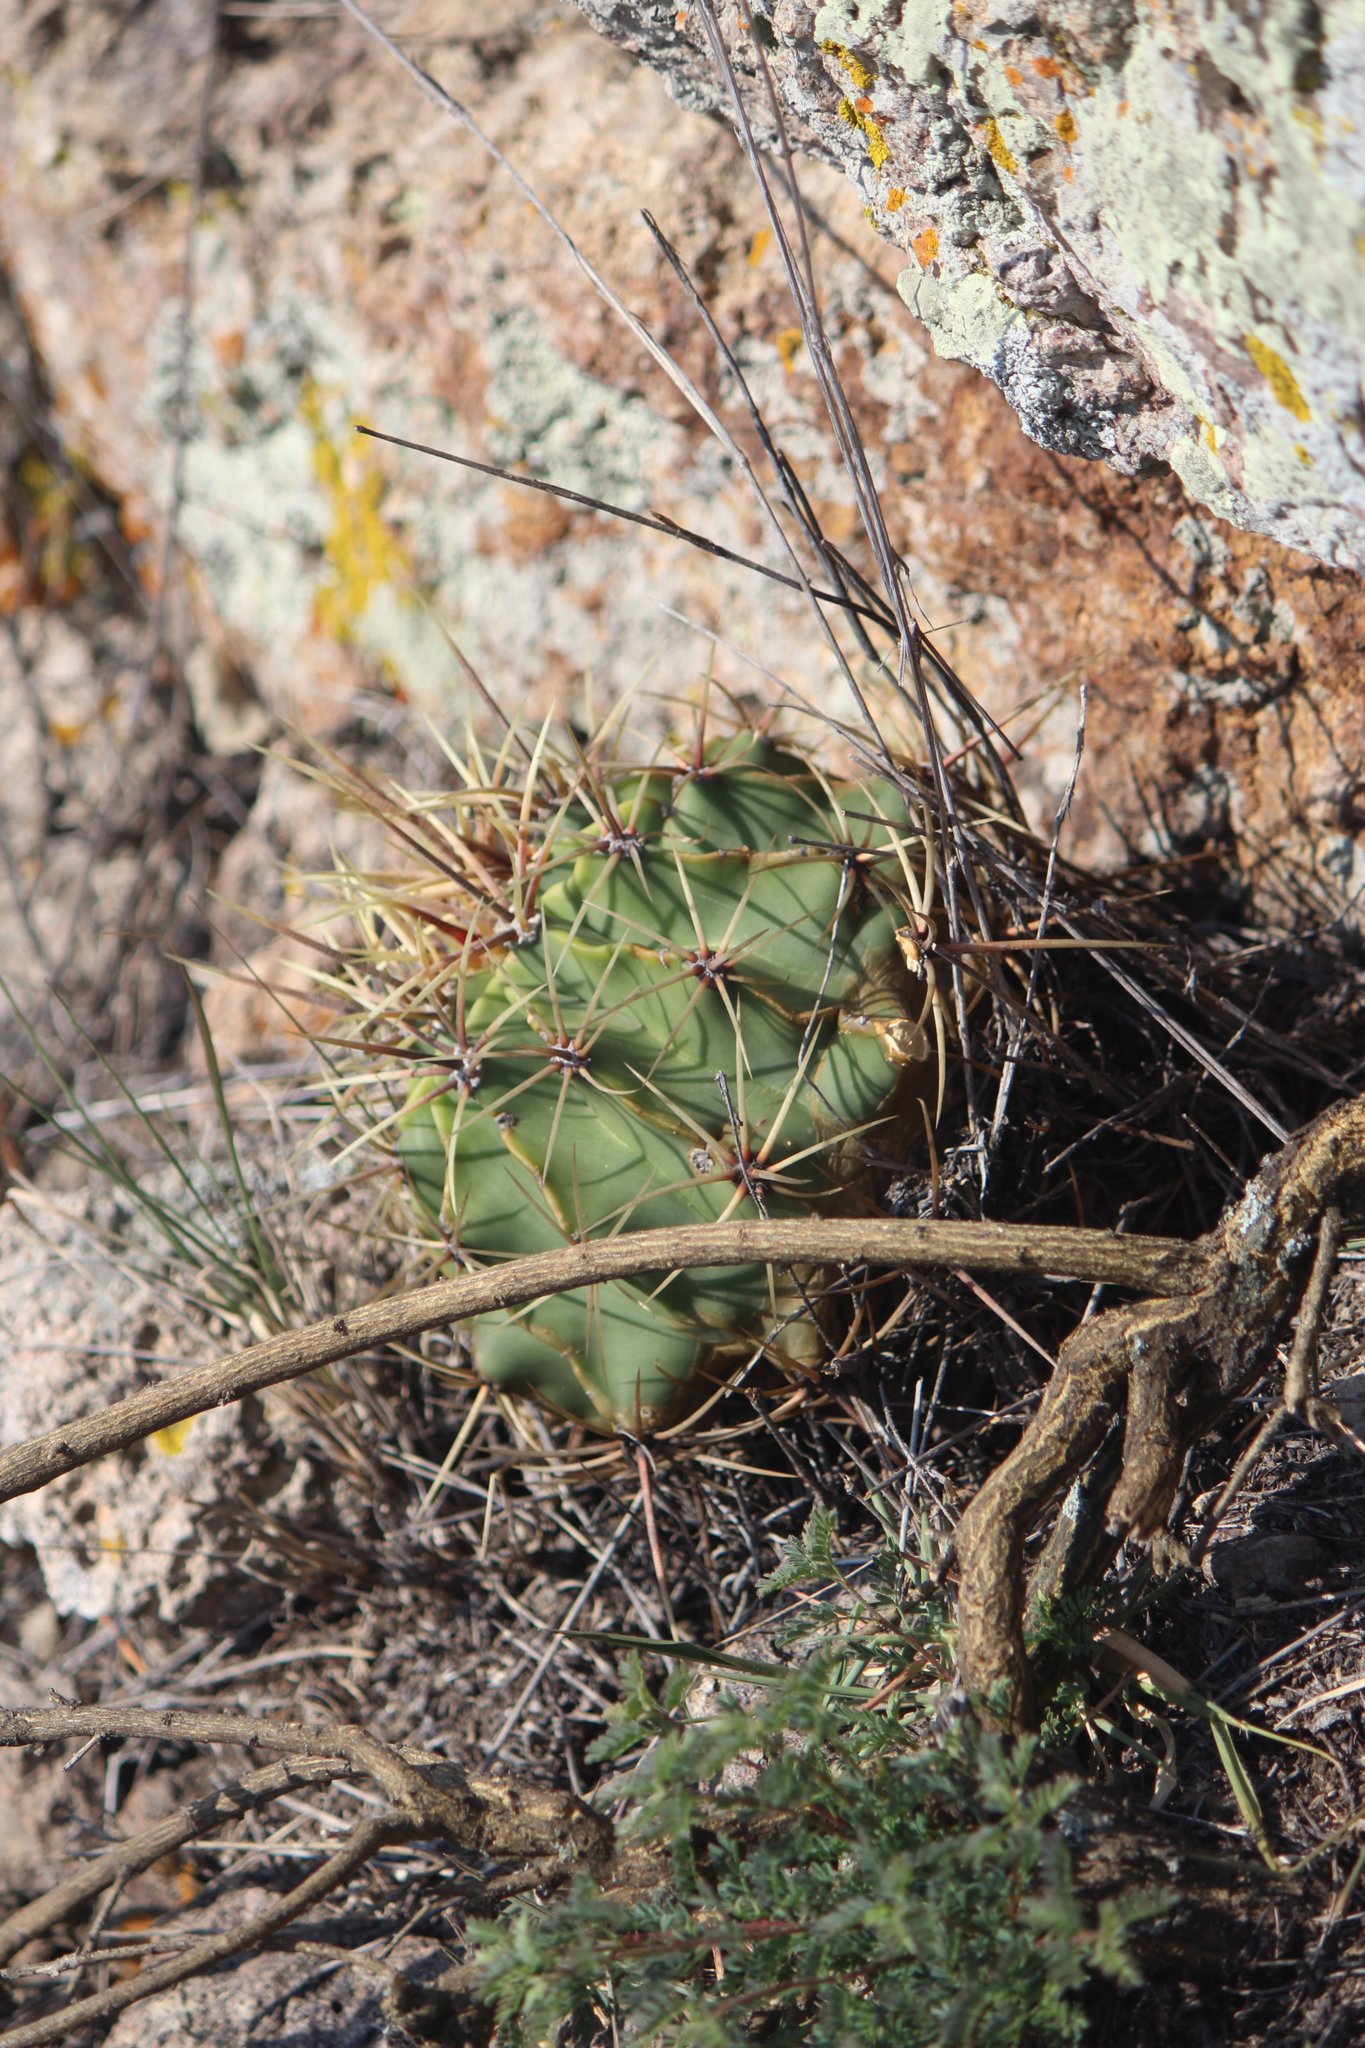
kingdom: Plantae
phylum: Tracheophyta
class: Magnoliopsida
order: Caryophyllales
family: Cactaceae
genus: Bisnaga
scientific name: Bisnaga histrix
